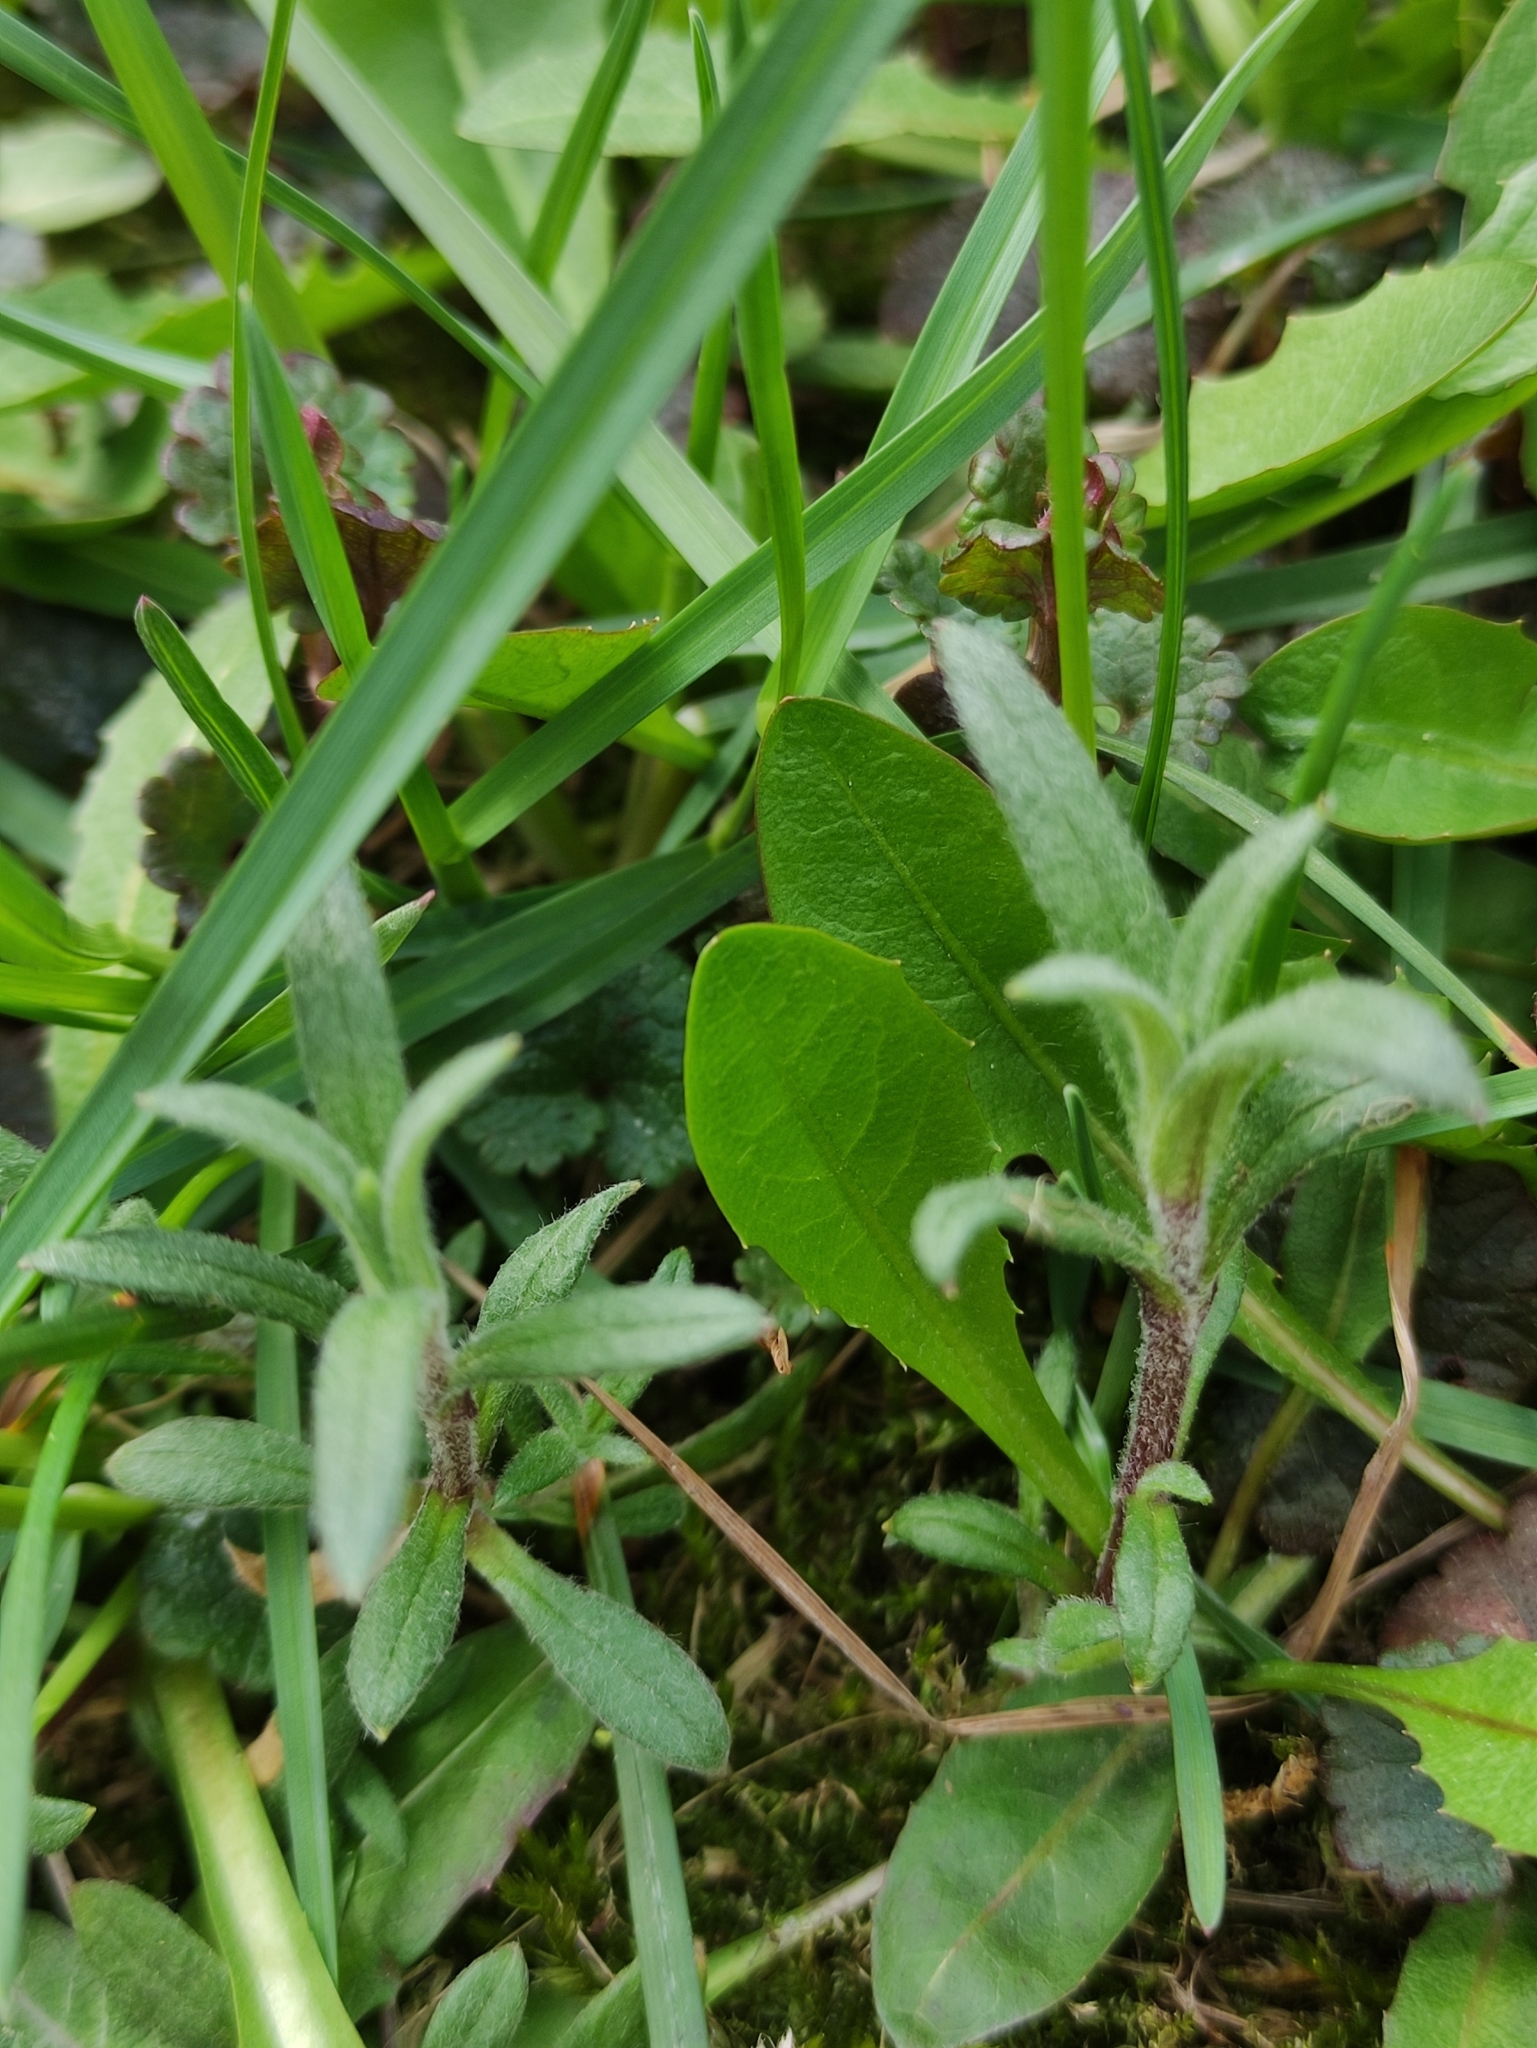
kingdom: Plantae
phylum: Tracheophyta
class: Magnoliopsida
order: Caryophyllales
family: Caryophyllaceae
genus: Cerastium
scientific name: Cerastium arvense
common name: Field mouse-ear
